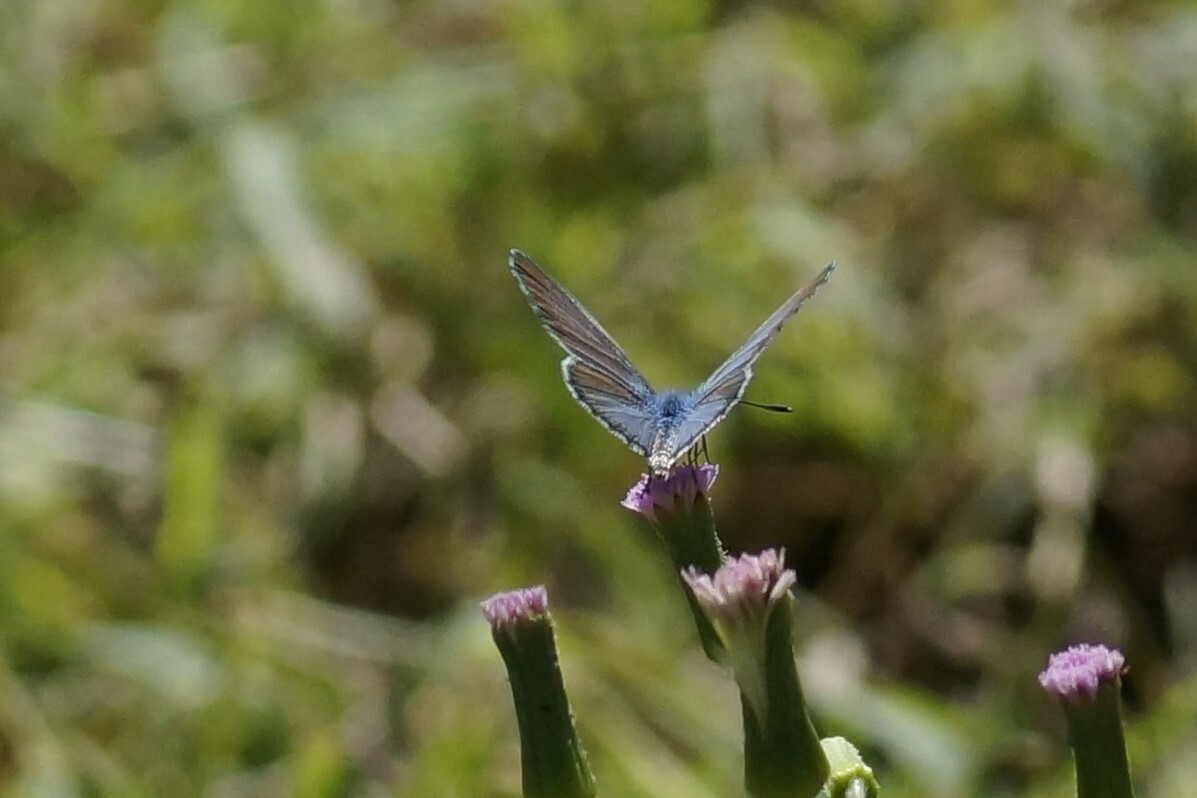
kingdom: Animalia
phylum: Arthropoda
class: Insecta
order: Lepidoptera
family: Lycaenidae
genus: Zizina
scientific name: Zizina labradus
